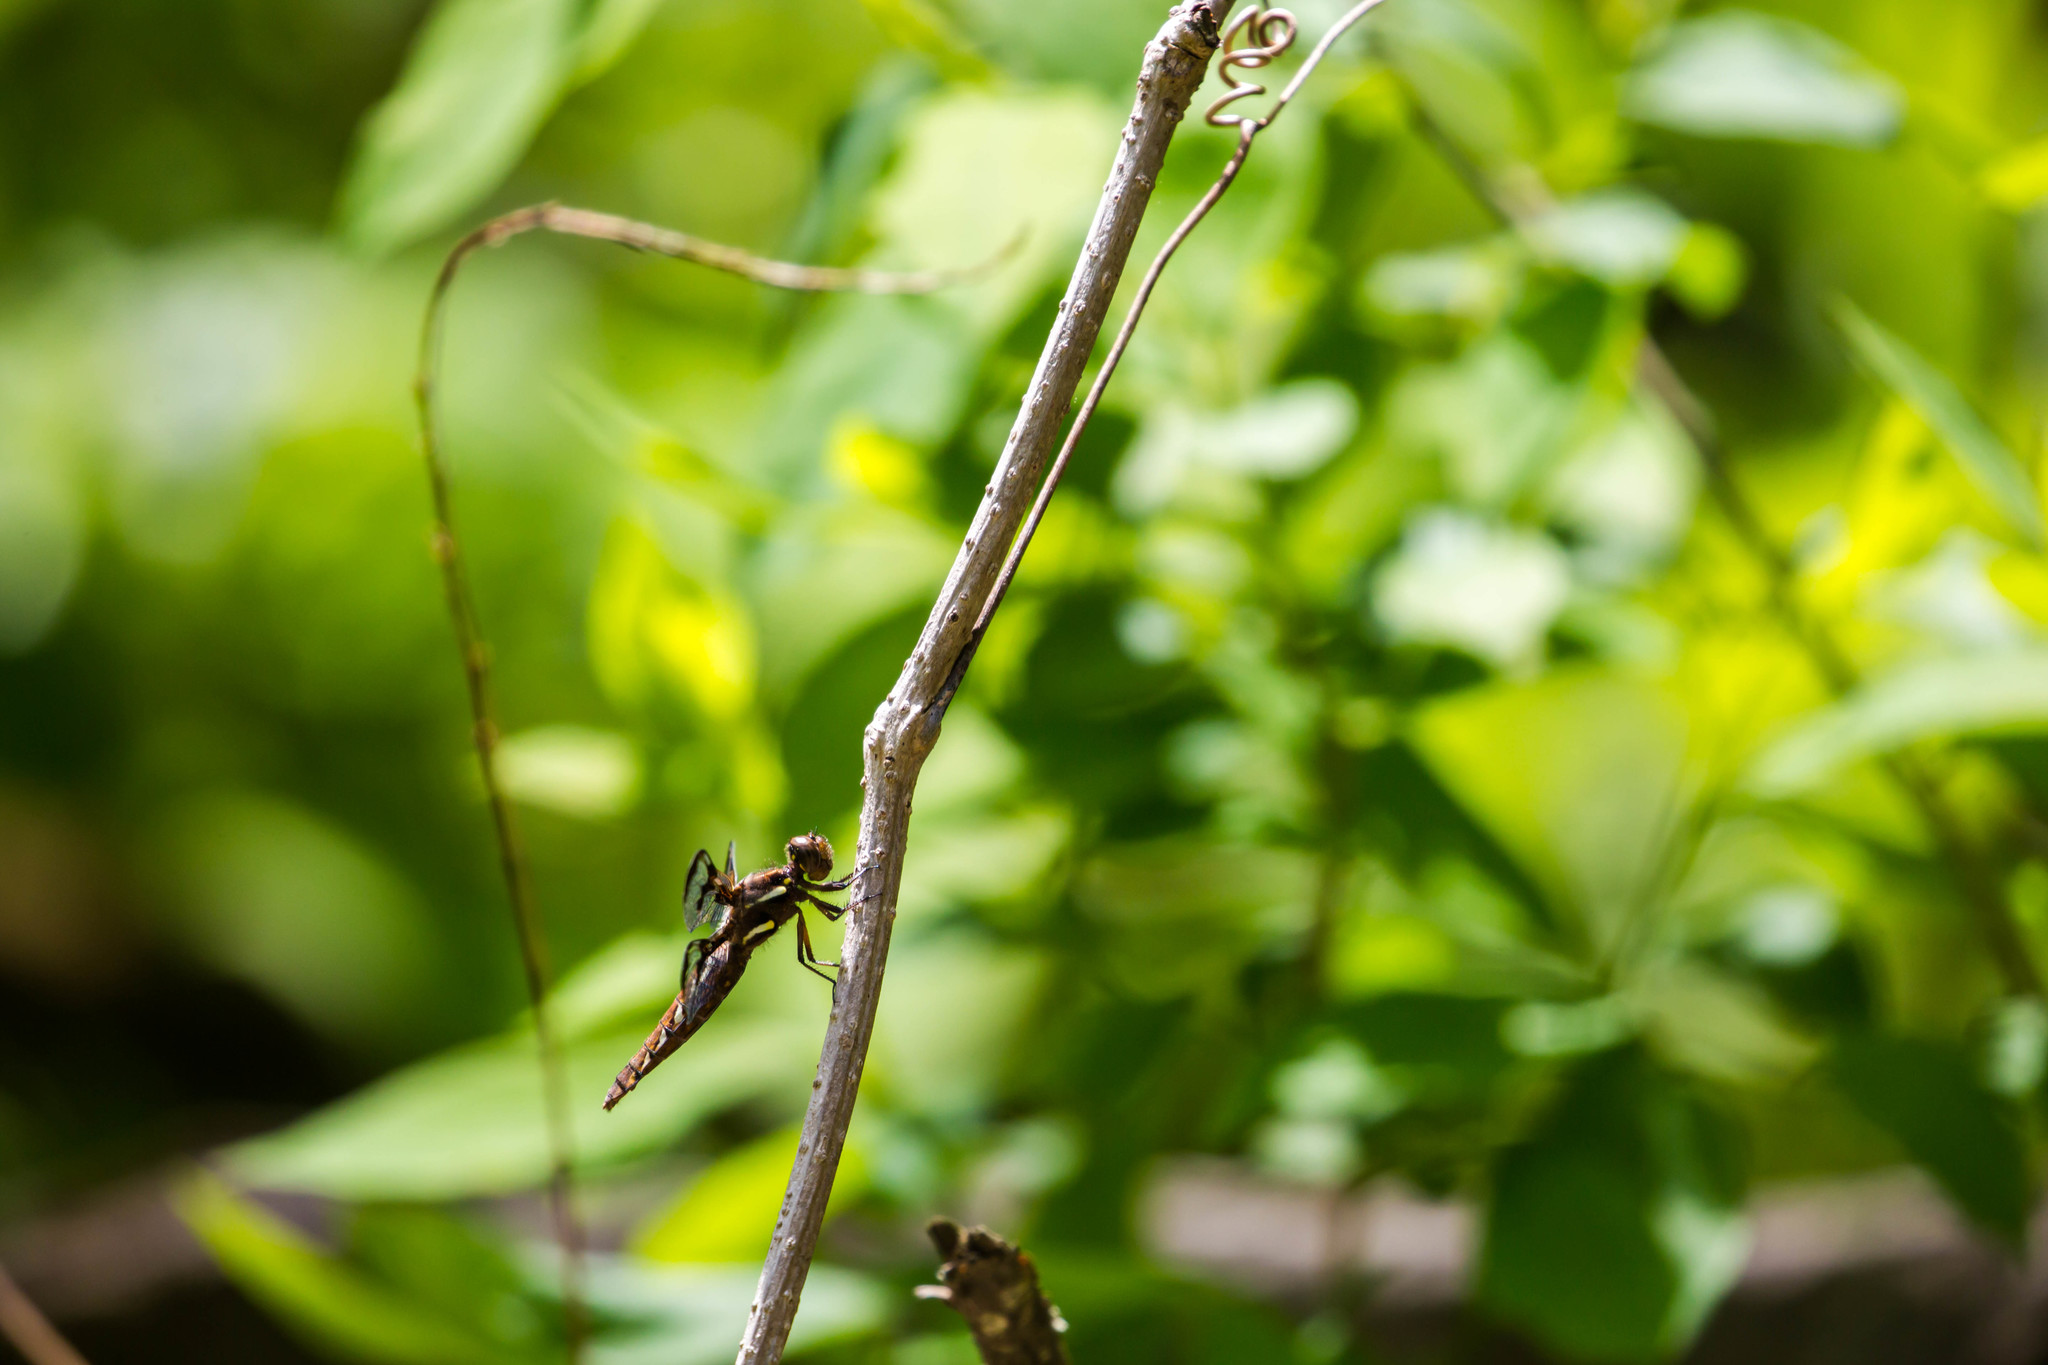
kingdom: Animalia
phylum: Arthropoda
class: Insecta
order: Odonata
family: Libellulidae
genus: Plathemis
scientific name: Plathemis lydia
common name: Common whitetail
